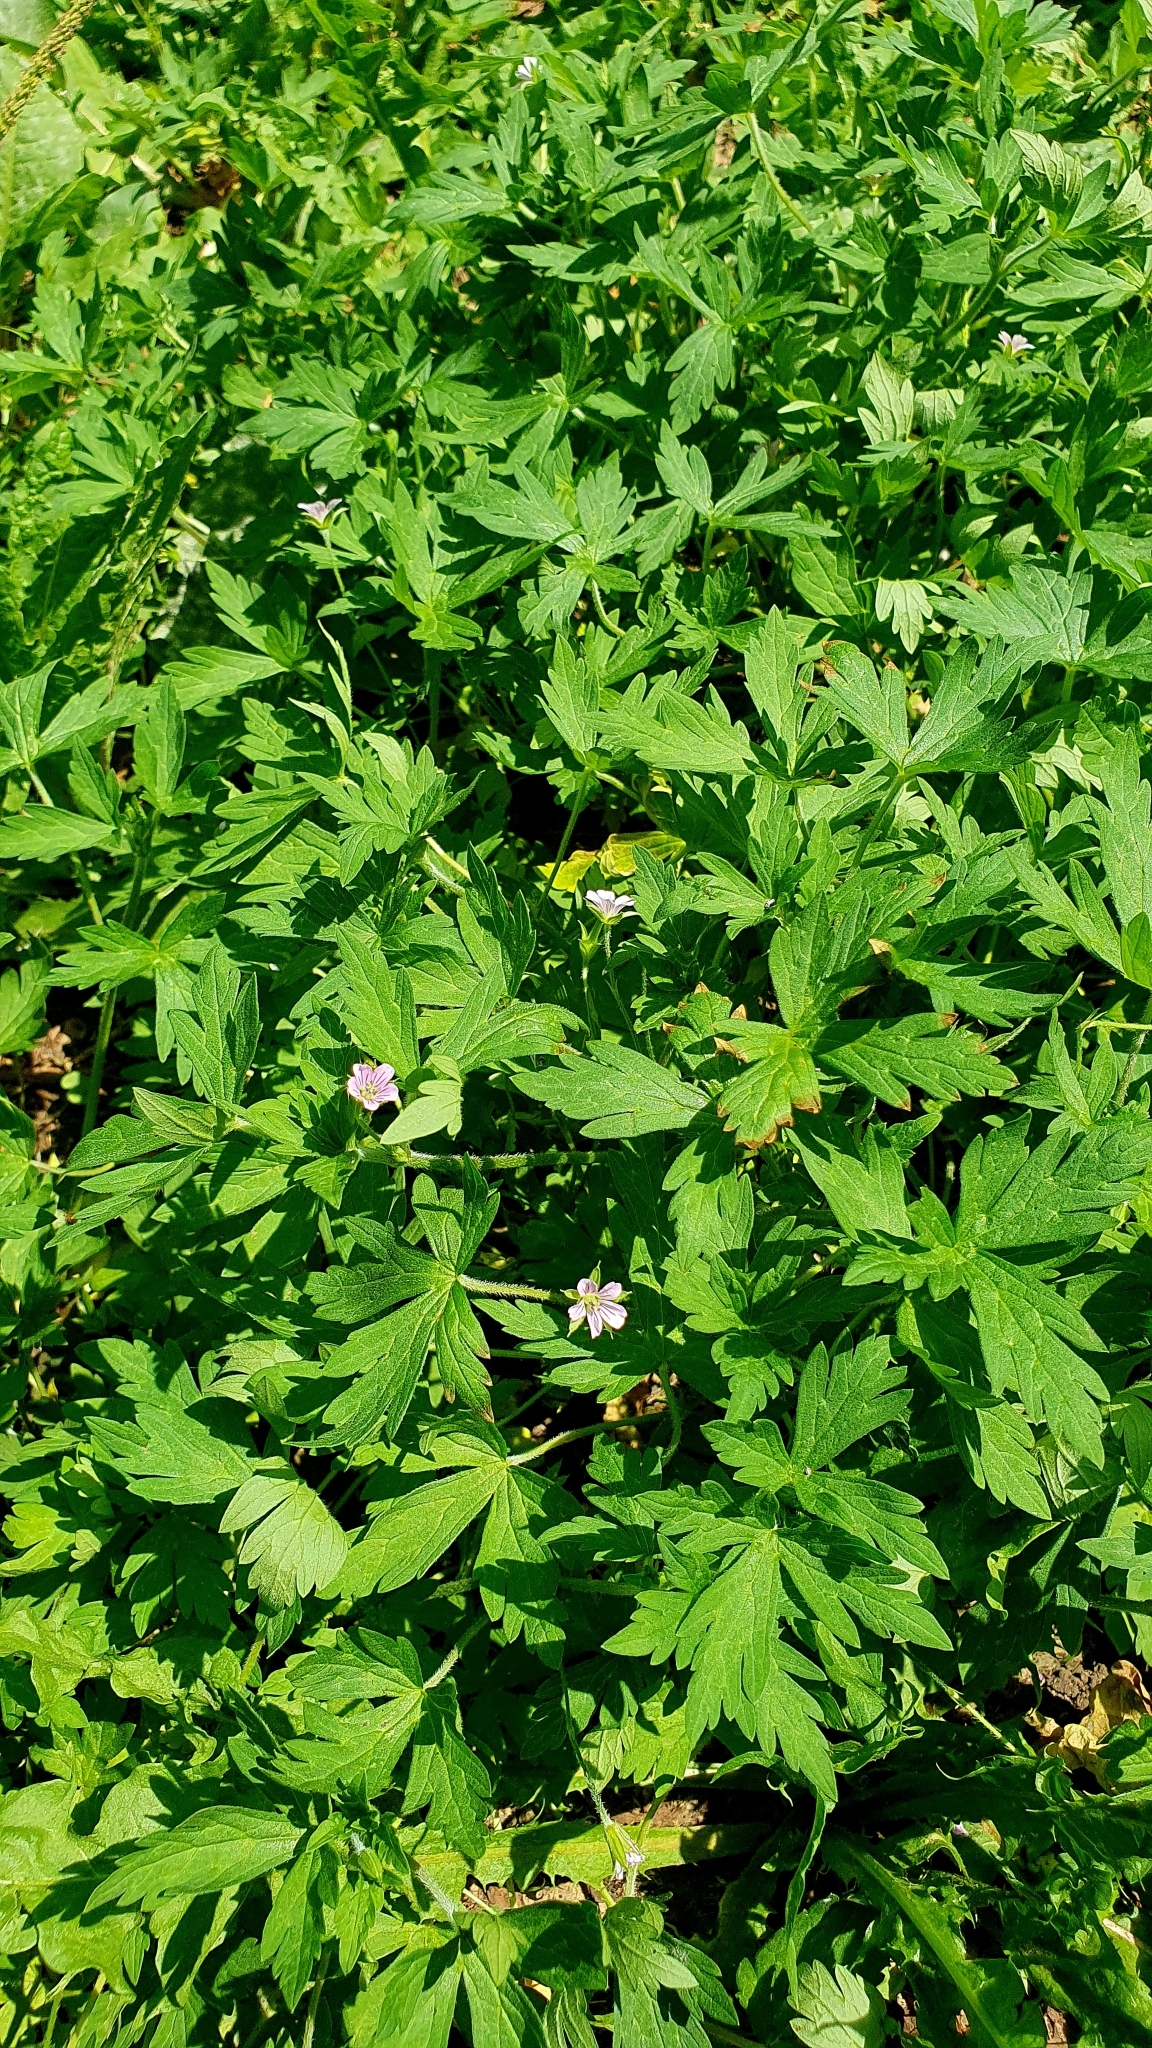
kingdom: Plantae
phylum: Tracheophyta
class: Magnoliopsida
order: Geraniales
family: Geraniaceae
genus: Geranium
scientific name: Geranium sibiricum
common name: Siberian crane's-bill
